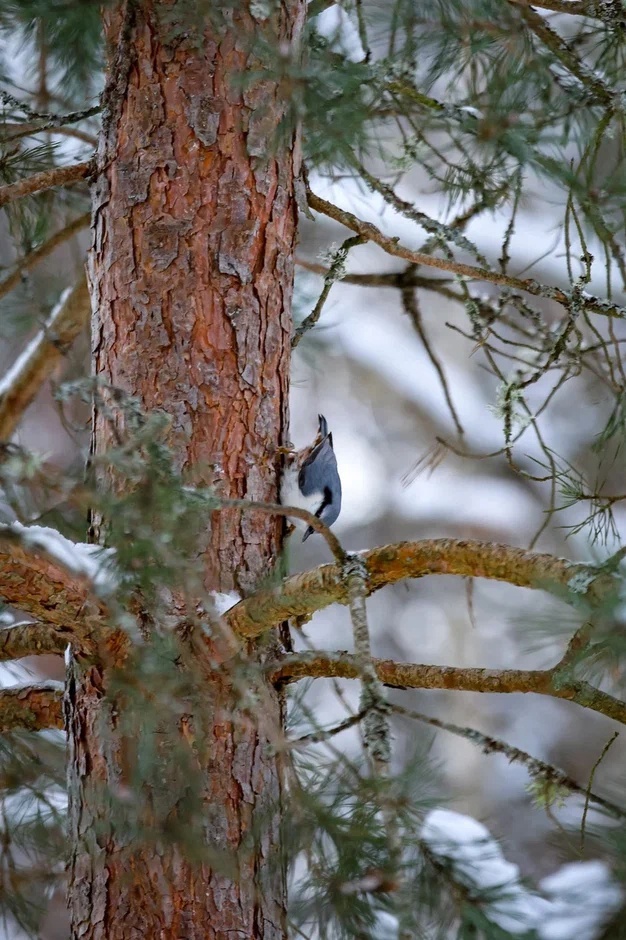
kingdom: Animalia
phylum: Chordata
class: Aves
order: Passeriformes
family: Sittidae
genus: Sitta
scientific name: Sitta europaea
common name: Eurasian nuthatch
